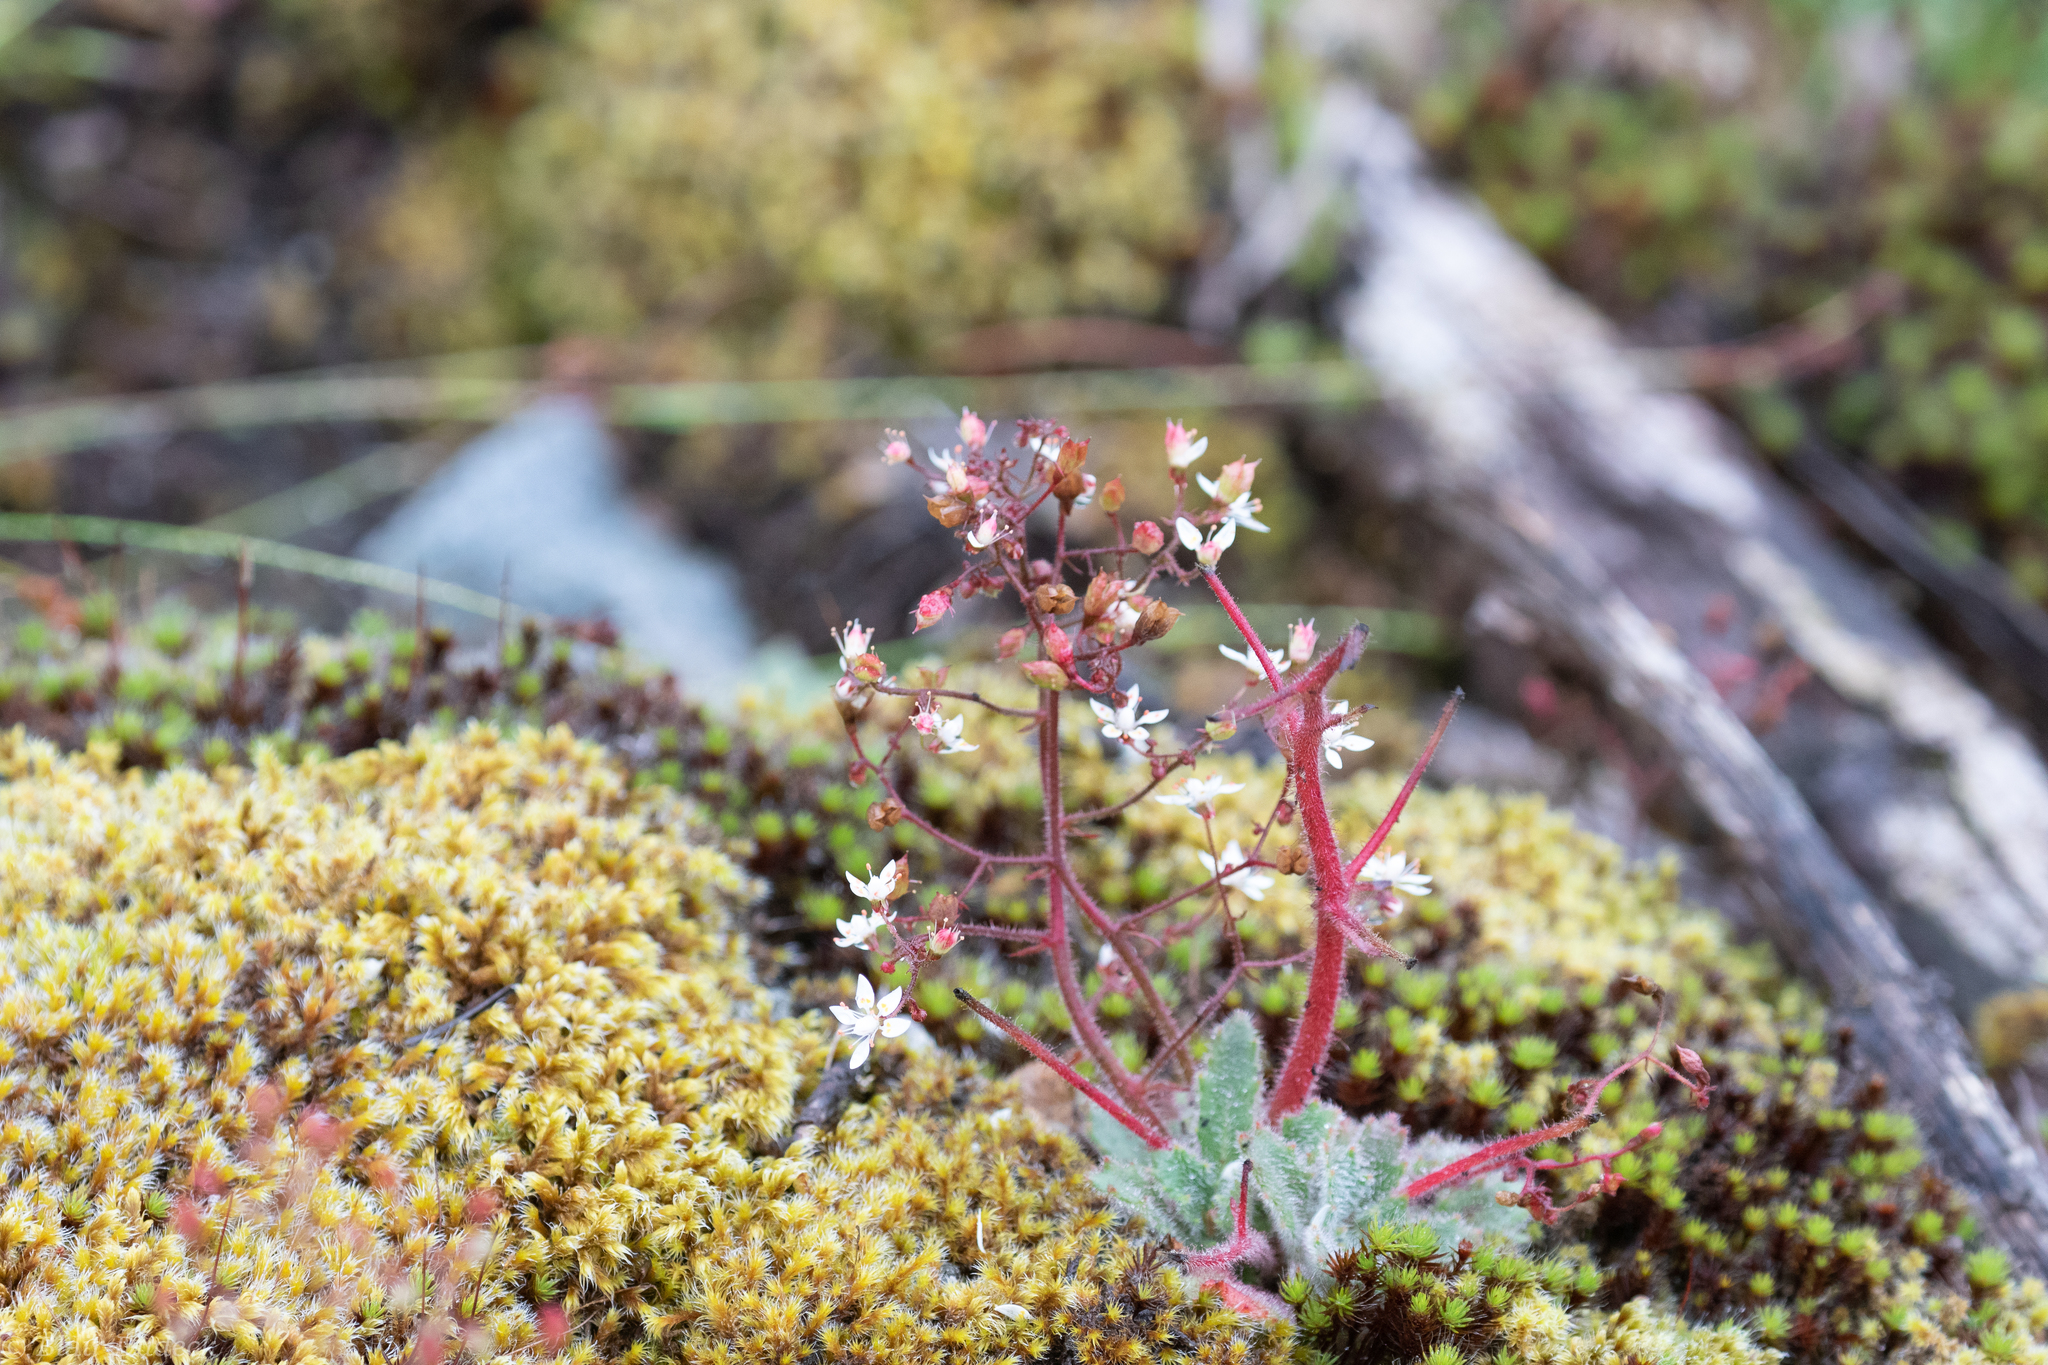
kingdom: Plantae
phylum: Tracheophyta
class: Magnoliopsida
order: Saxifragales
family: Saxifragaceae
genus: Micranthes
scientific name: Micranthes ferruginea
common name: Rusty saxifrage
